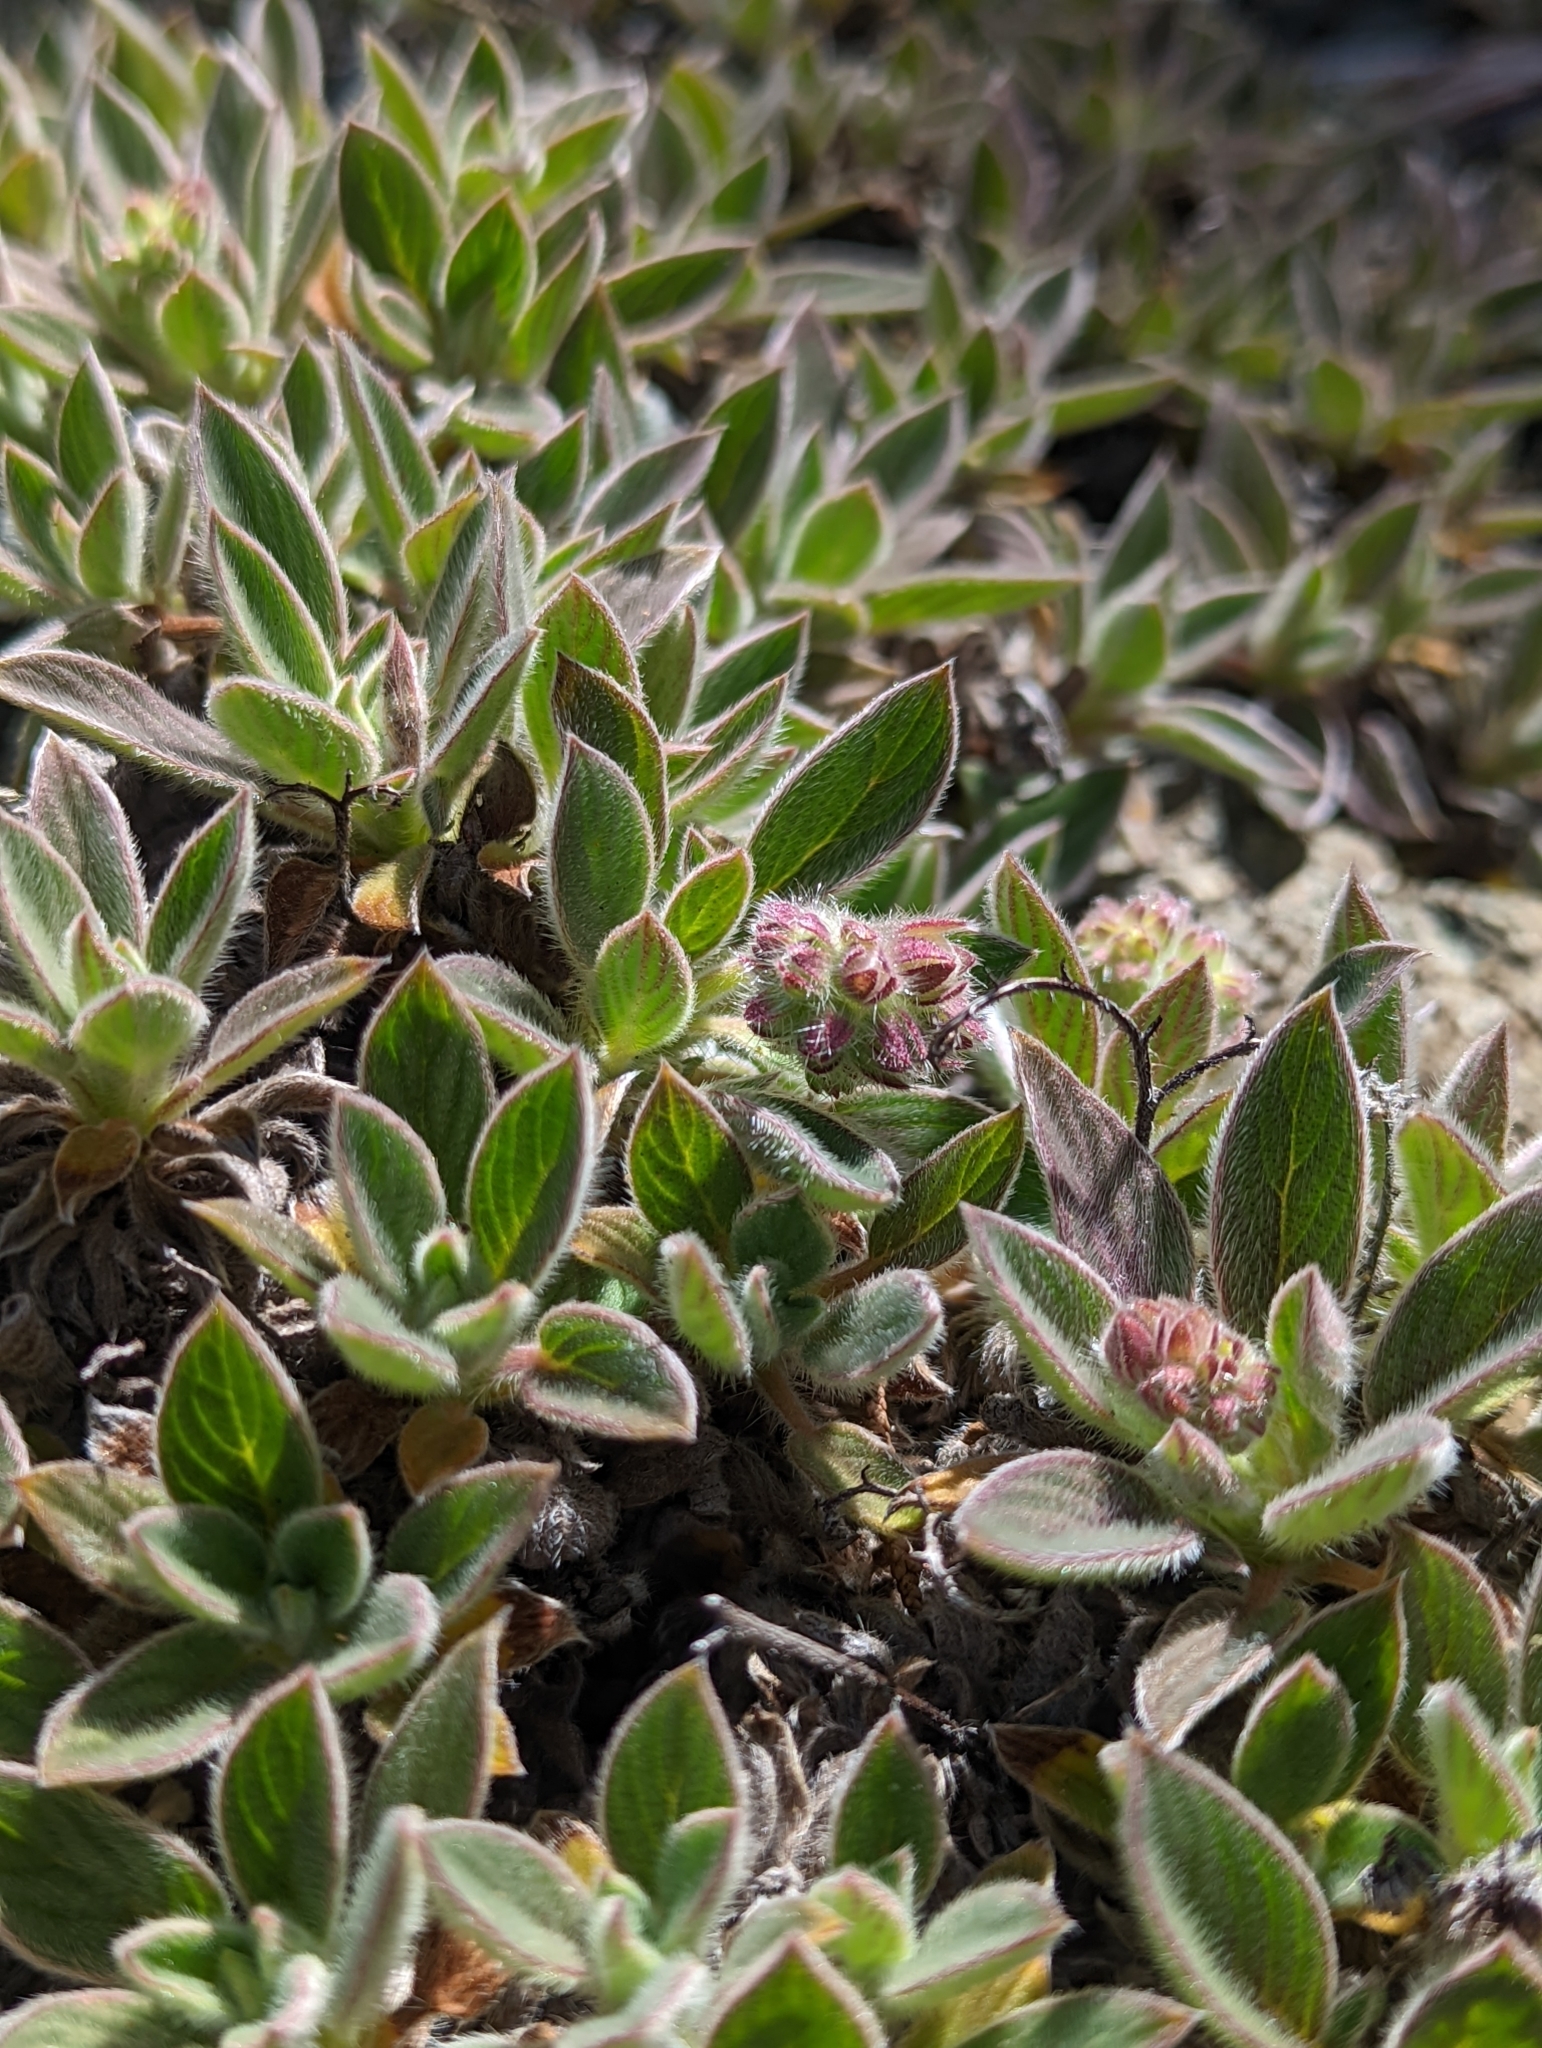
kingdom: Plantae
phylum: Tracheophyta
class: Magnoliopsida
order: Boraginales
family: Hydrophyllaceae
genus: Phacelia
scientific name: Phacelia corymbosa
